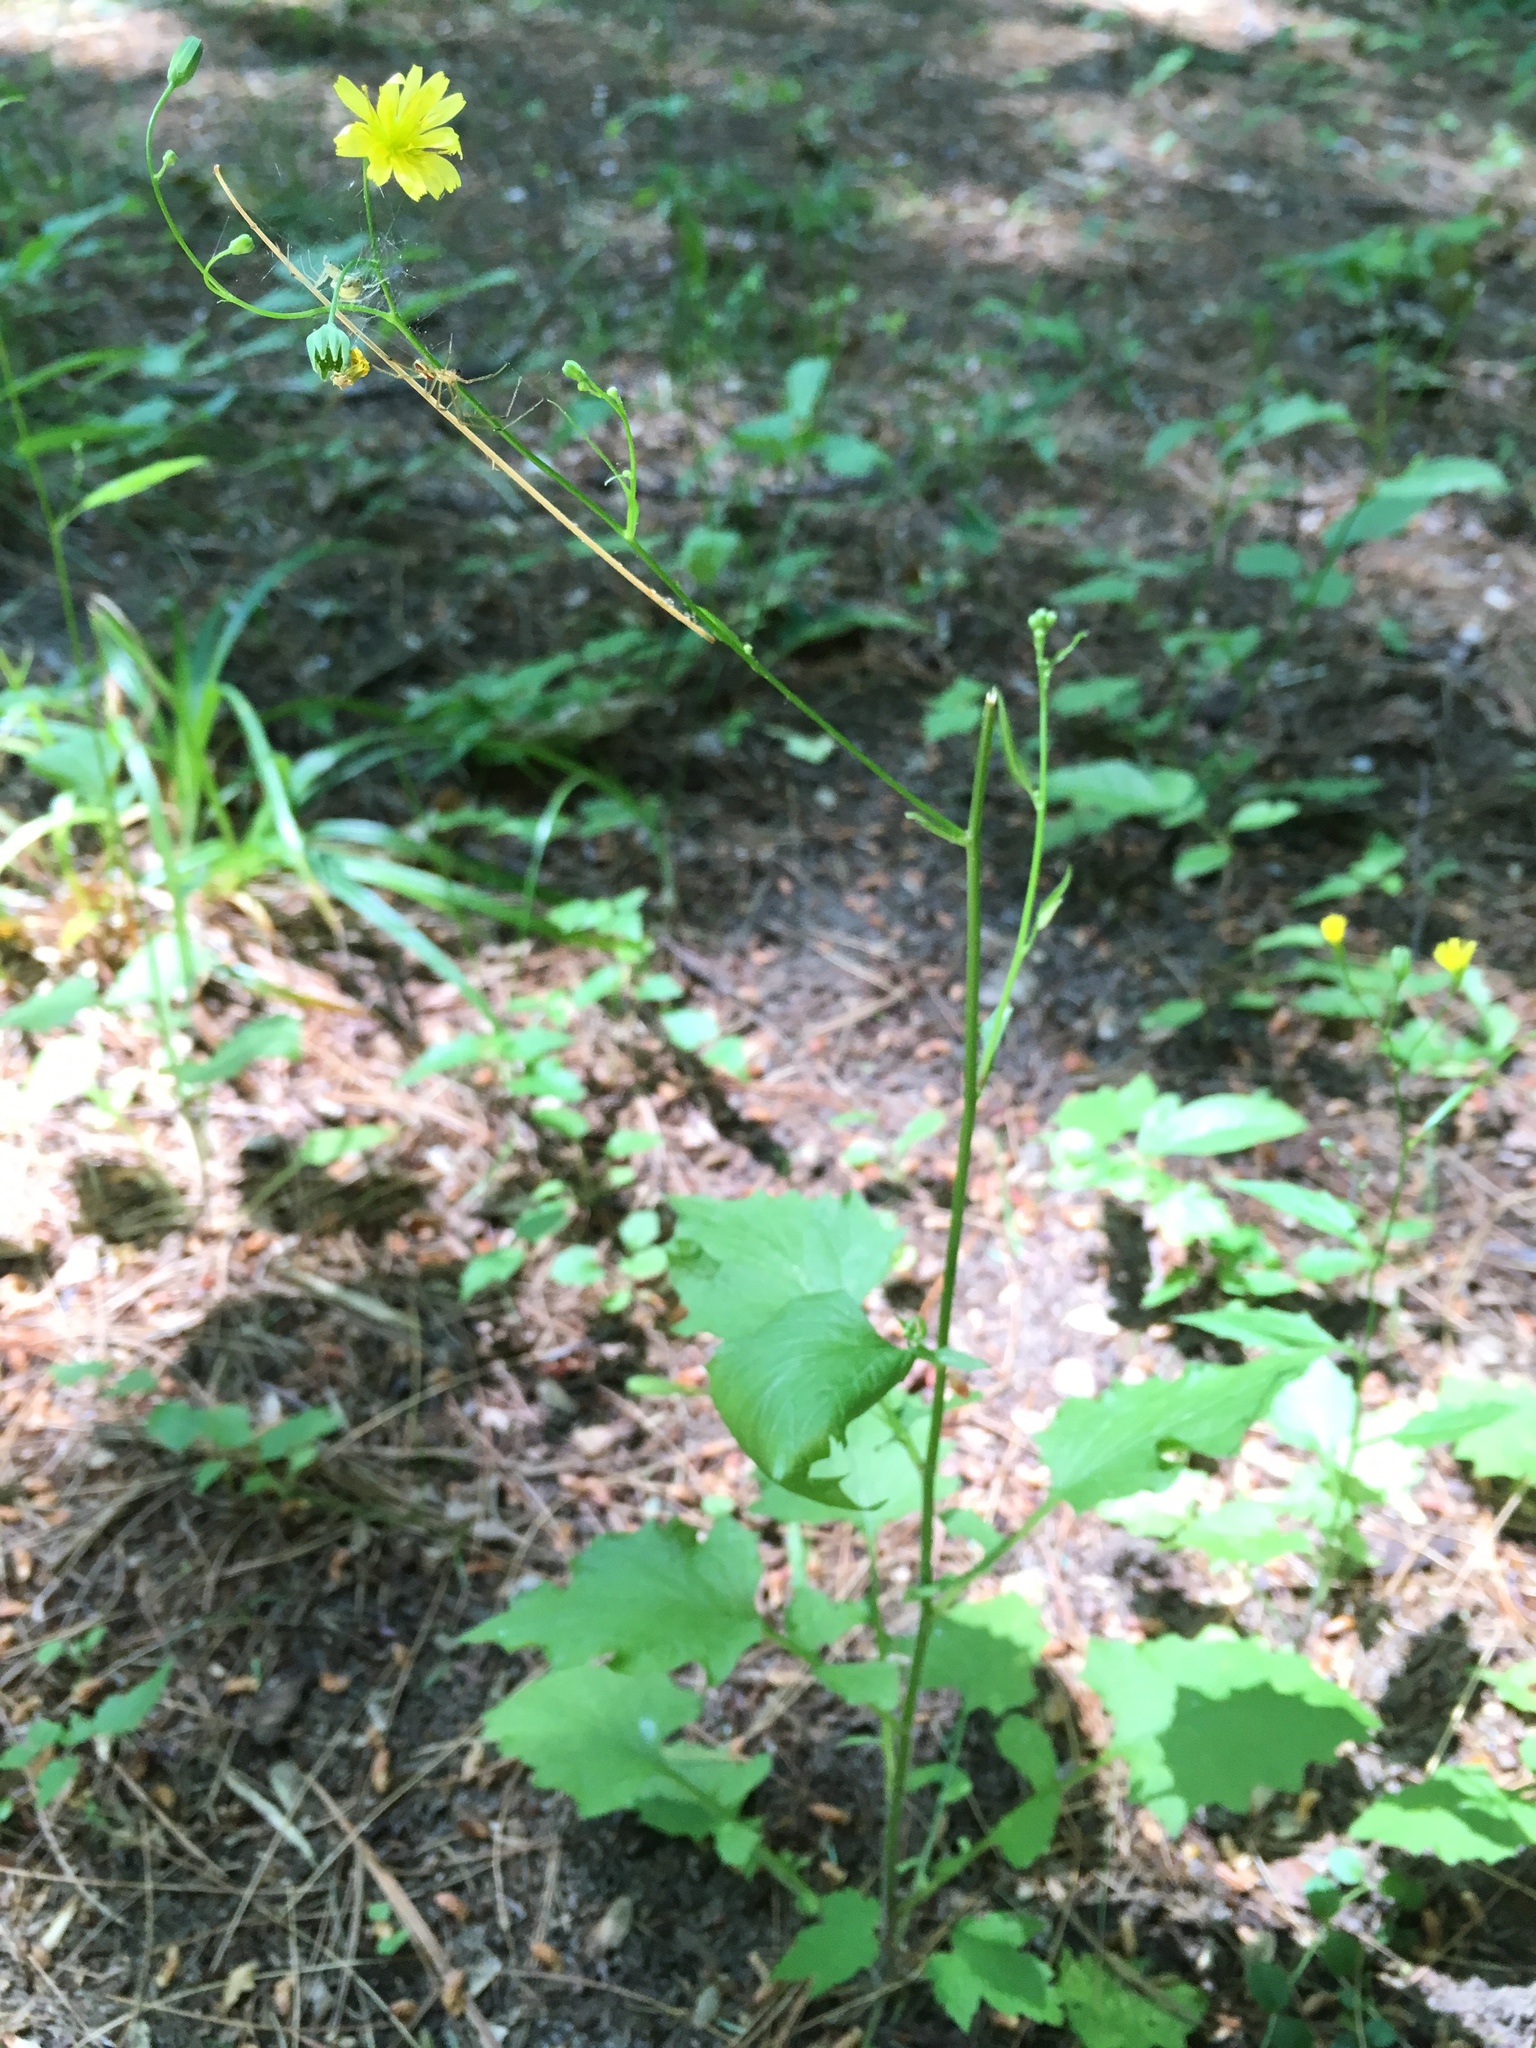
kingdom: Plantae
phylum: Tracheophyta
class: Magnoliopsida
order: Asterales
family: Asteraceae
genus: Lapsana
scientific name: Lapsana communis
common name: Nipplewort
